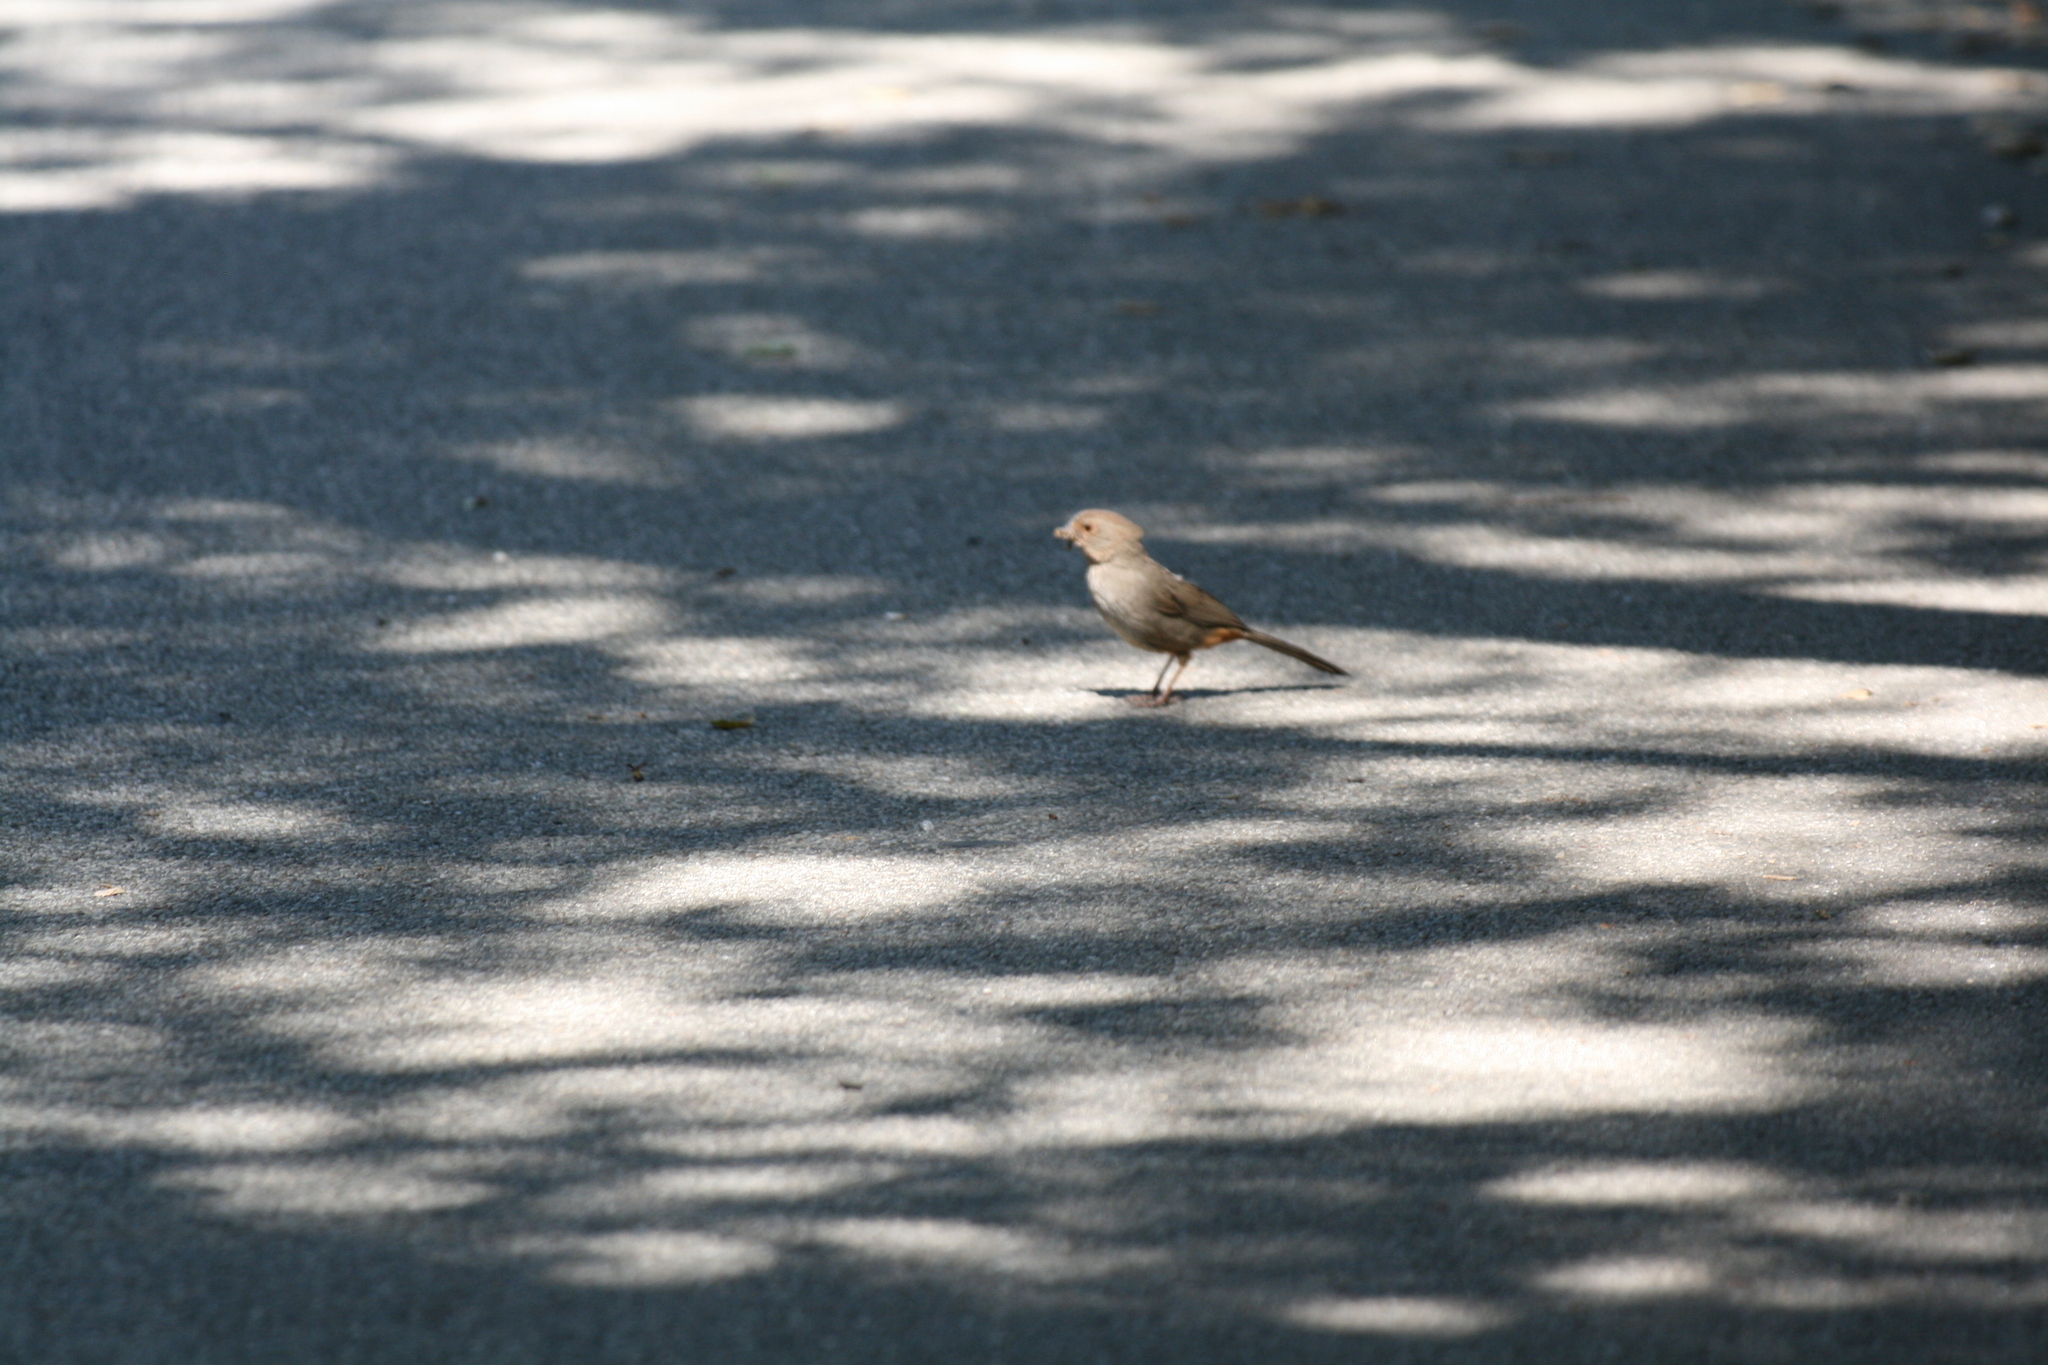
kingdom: Animalia
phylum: Chordata
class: Aves
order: Passeriformes
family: Passerellidae
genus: Melozone
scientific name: Melozone crissalis
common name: California towhee
